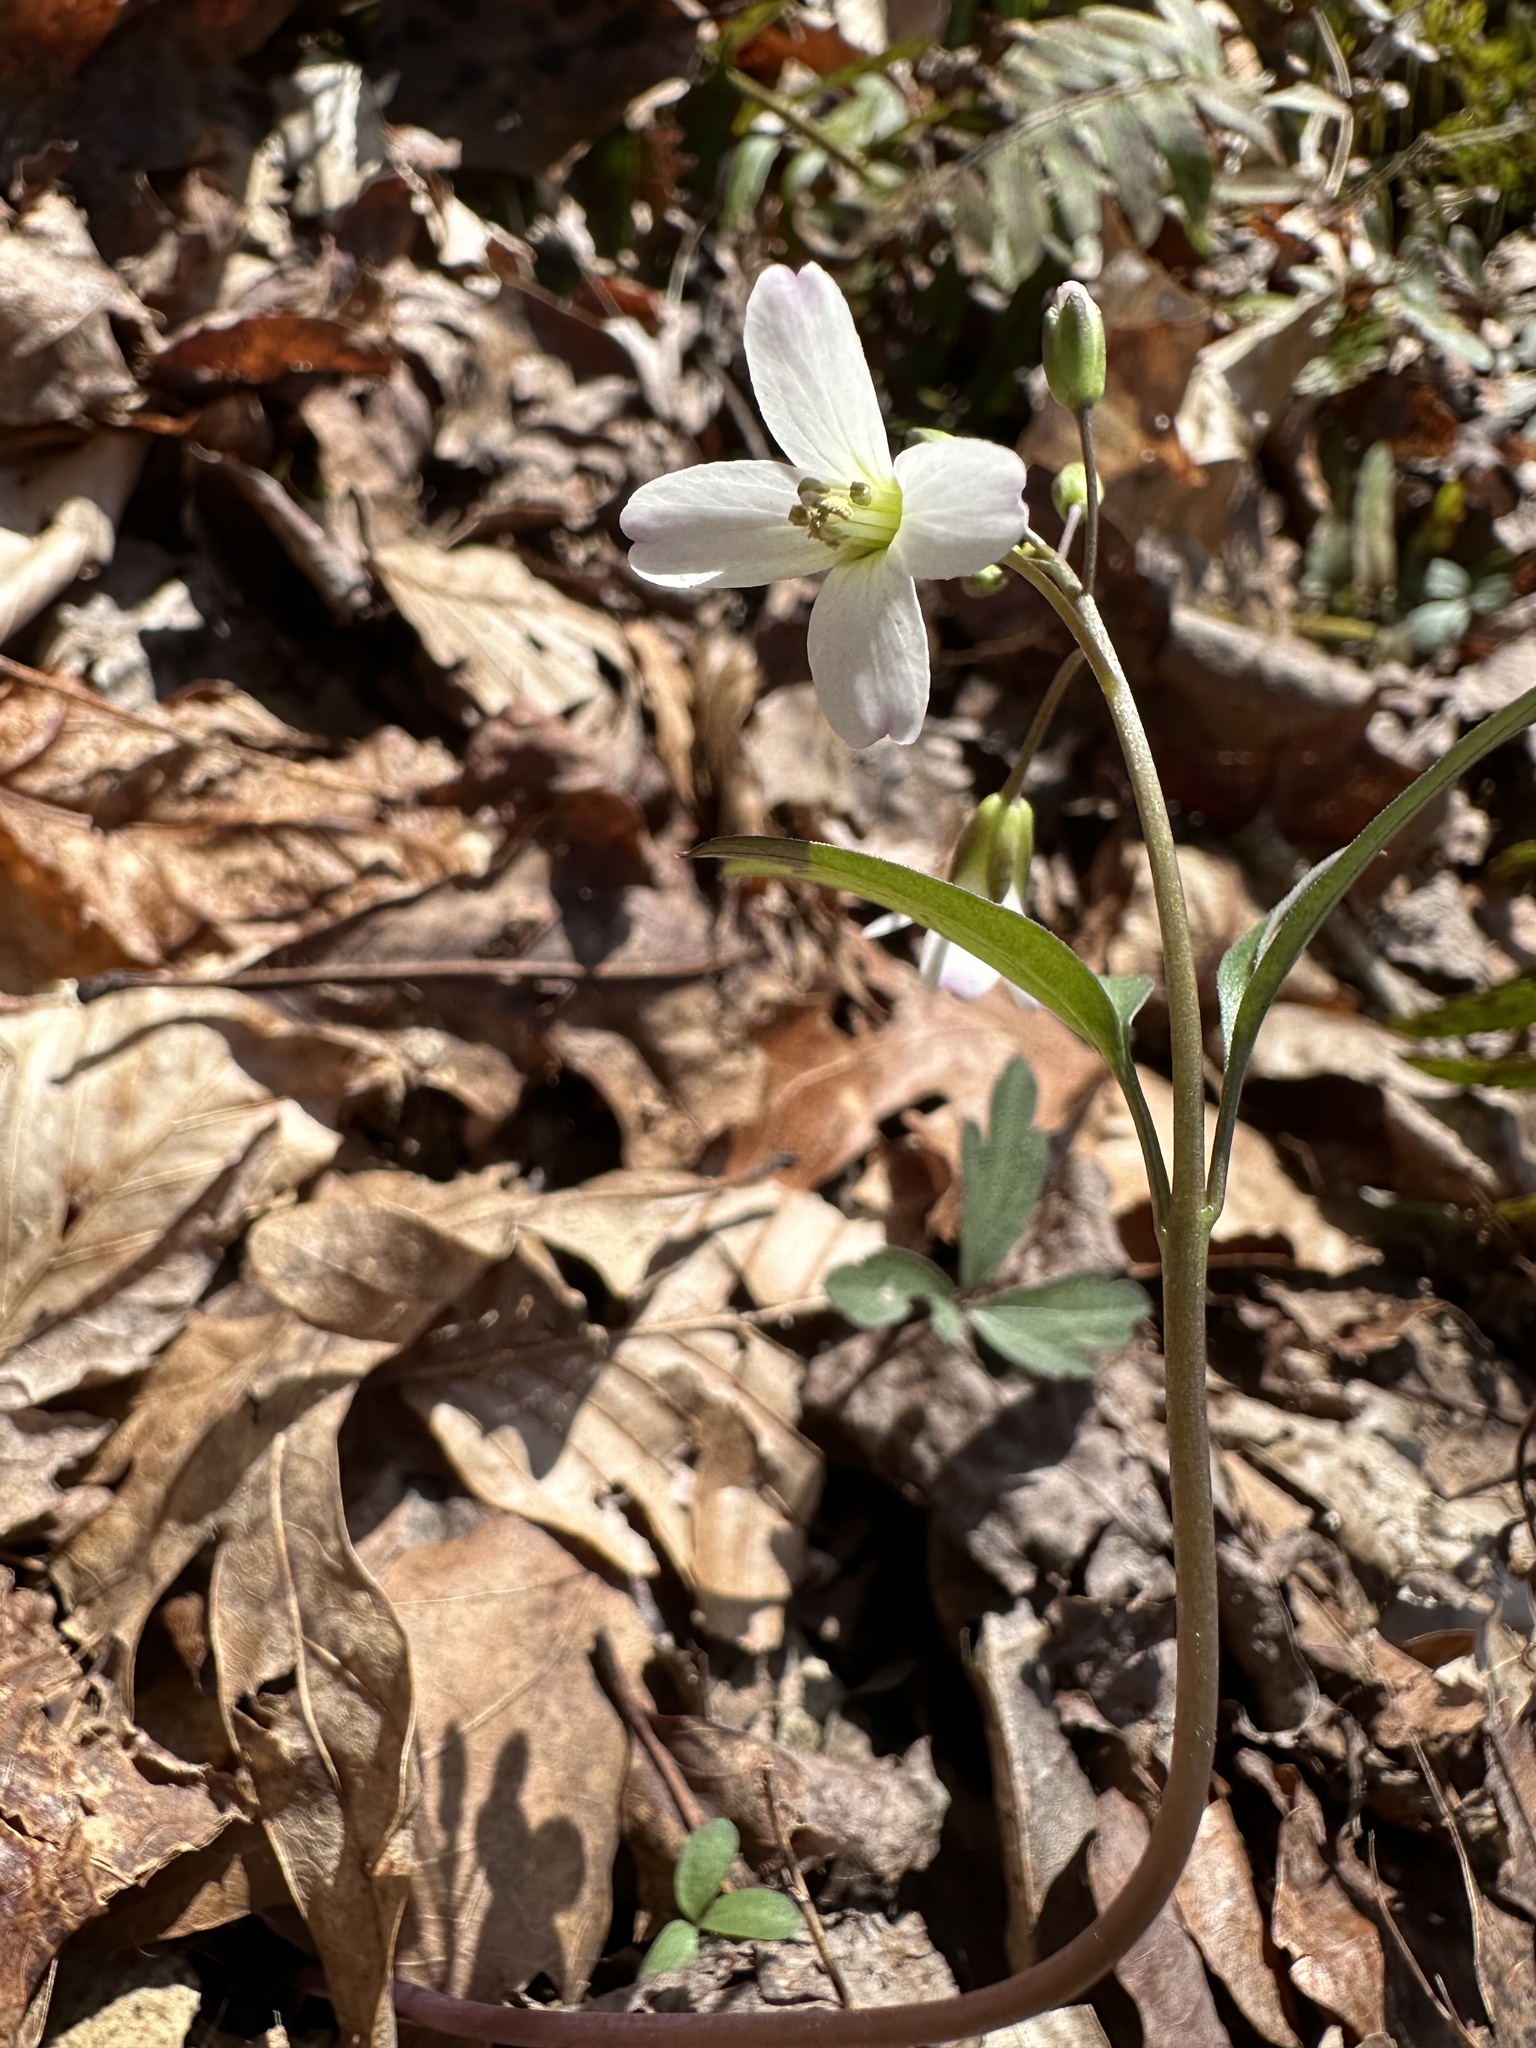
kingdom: Plantae
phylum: Tracheophyta
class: Magnoliopsida
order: Brassicales
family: Brassicaceae
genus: Cardamine
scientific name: Cardamine concatenata
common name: Cut-leaf toothcup
